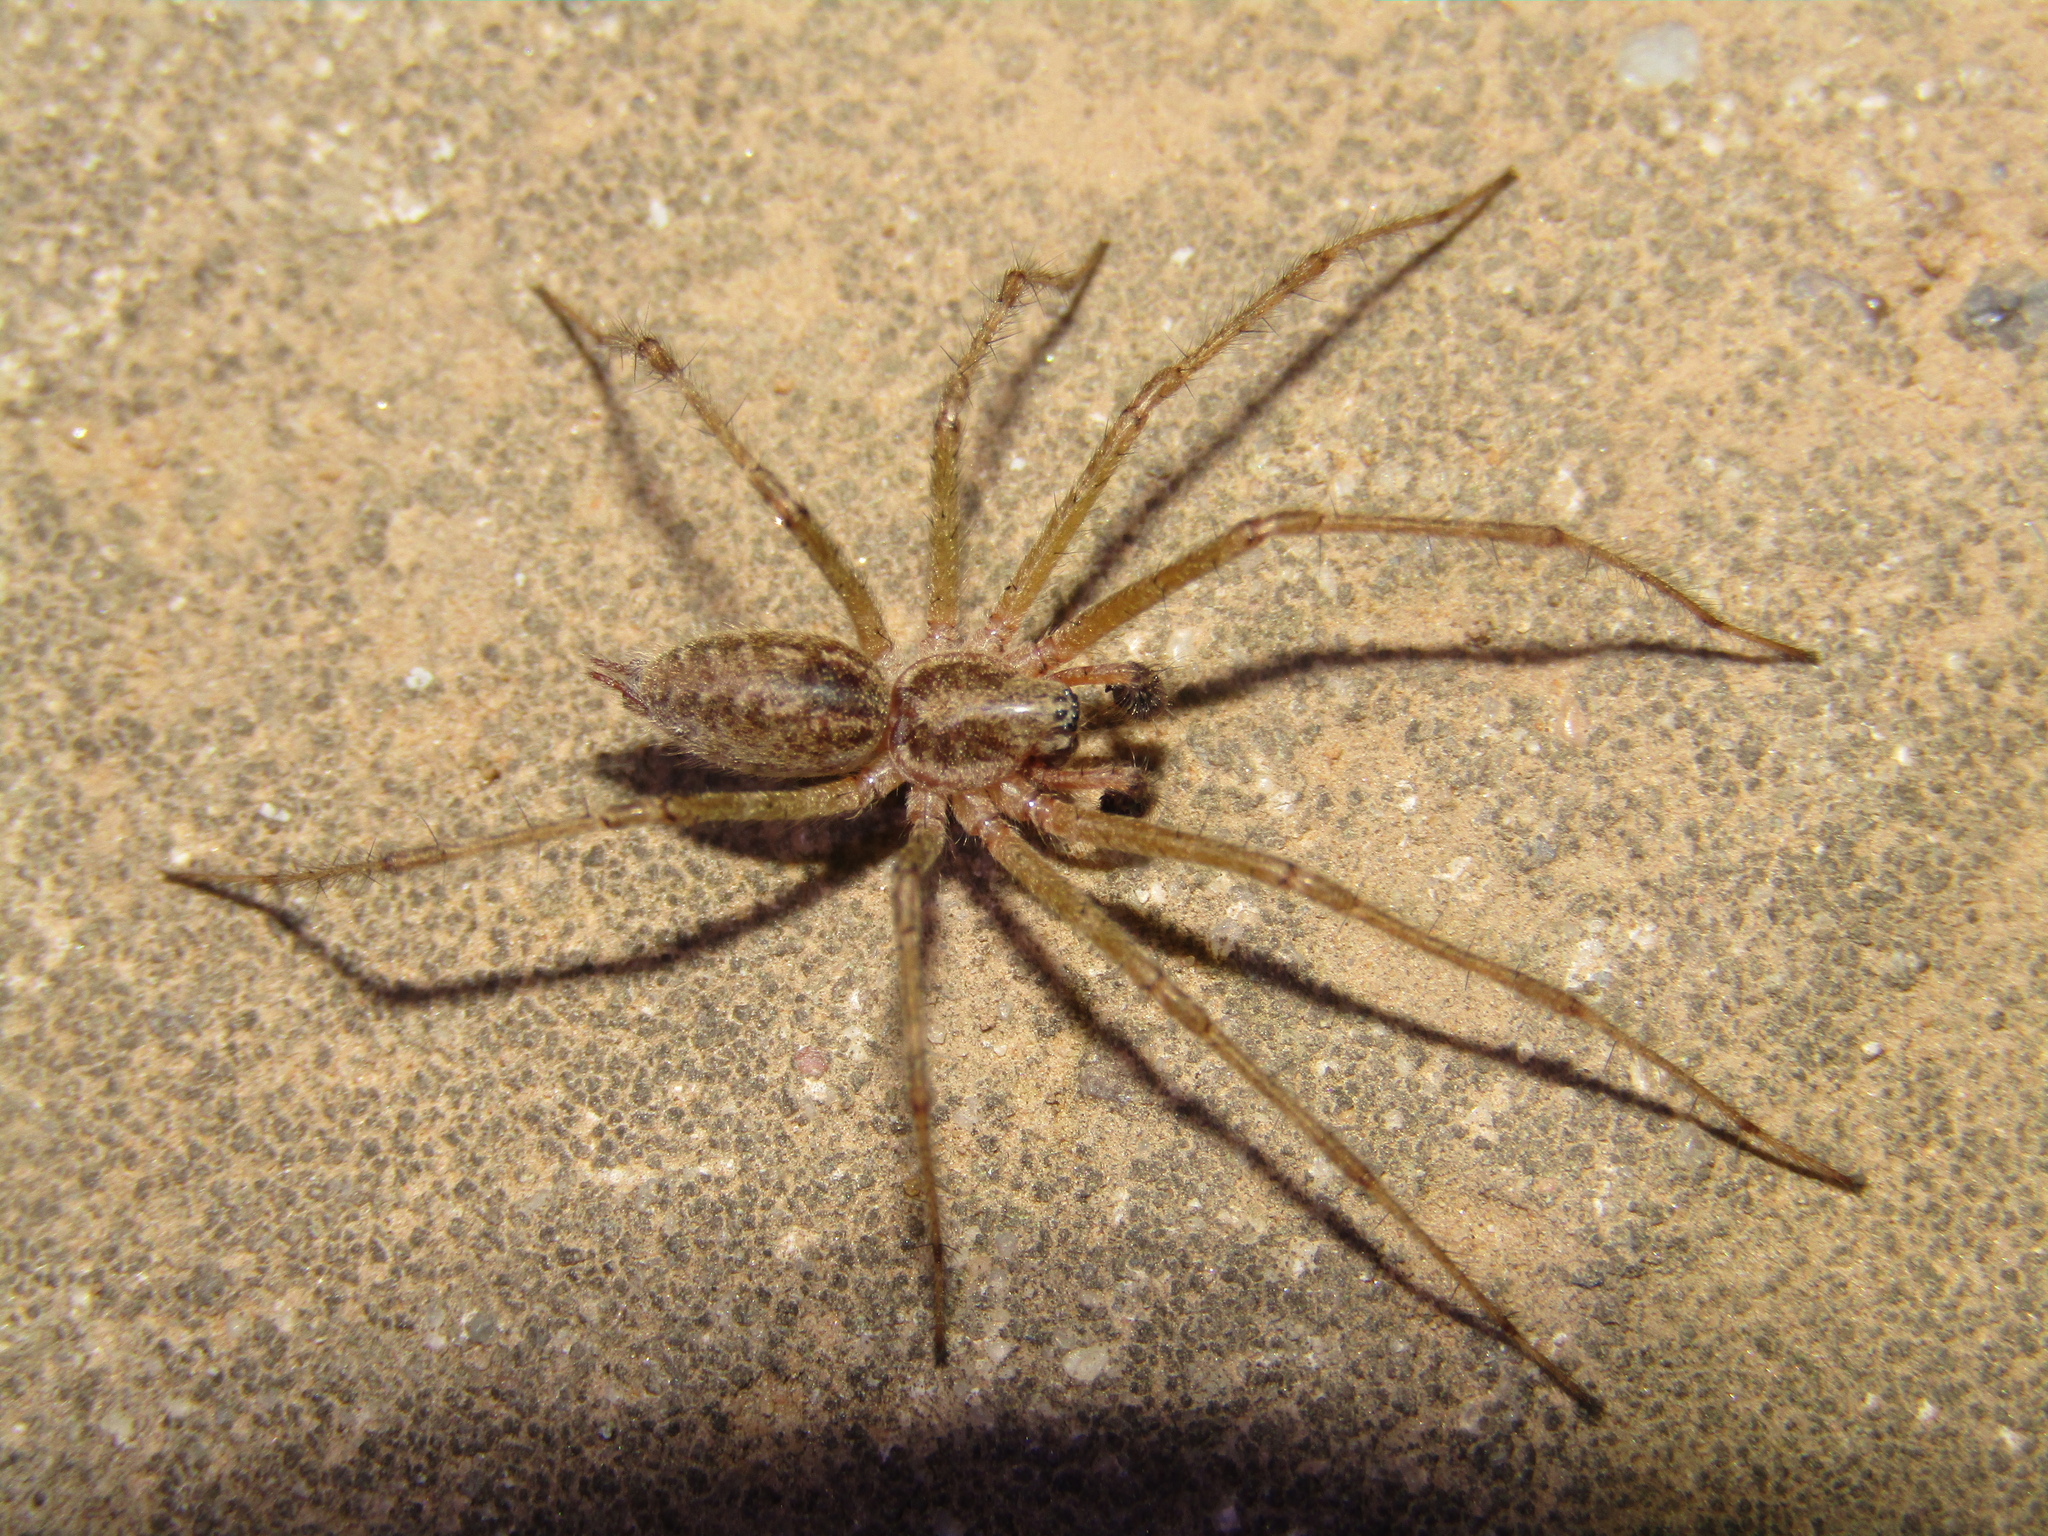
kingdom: Animalia
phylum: Arthropoda
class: Arachnida
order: Araneae
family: Agelenidae
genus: Allagelena
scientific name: Allagelena gracilens
